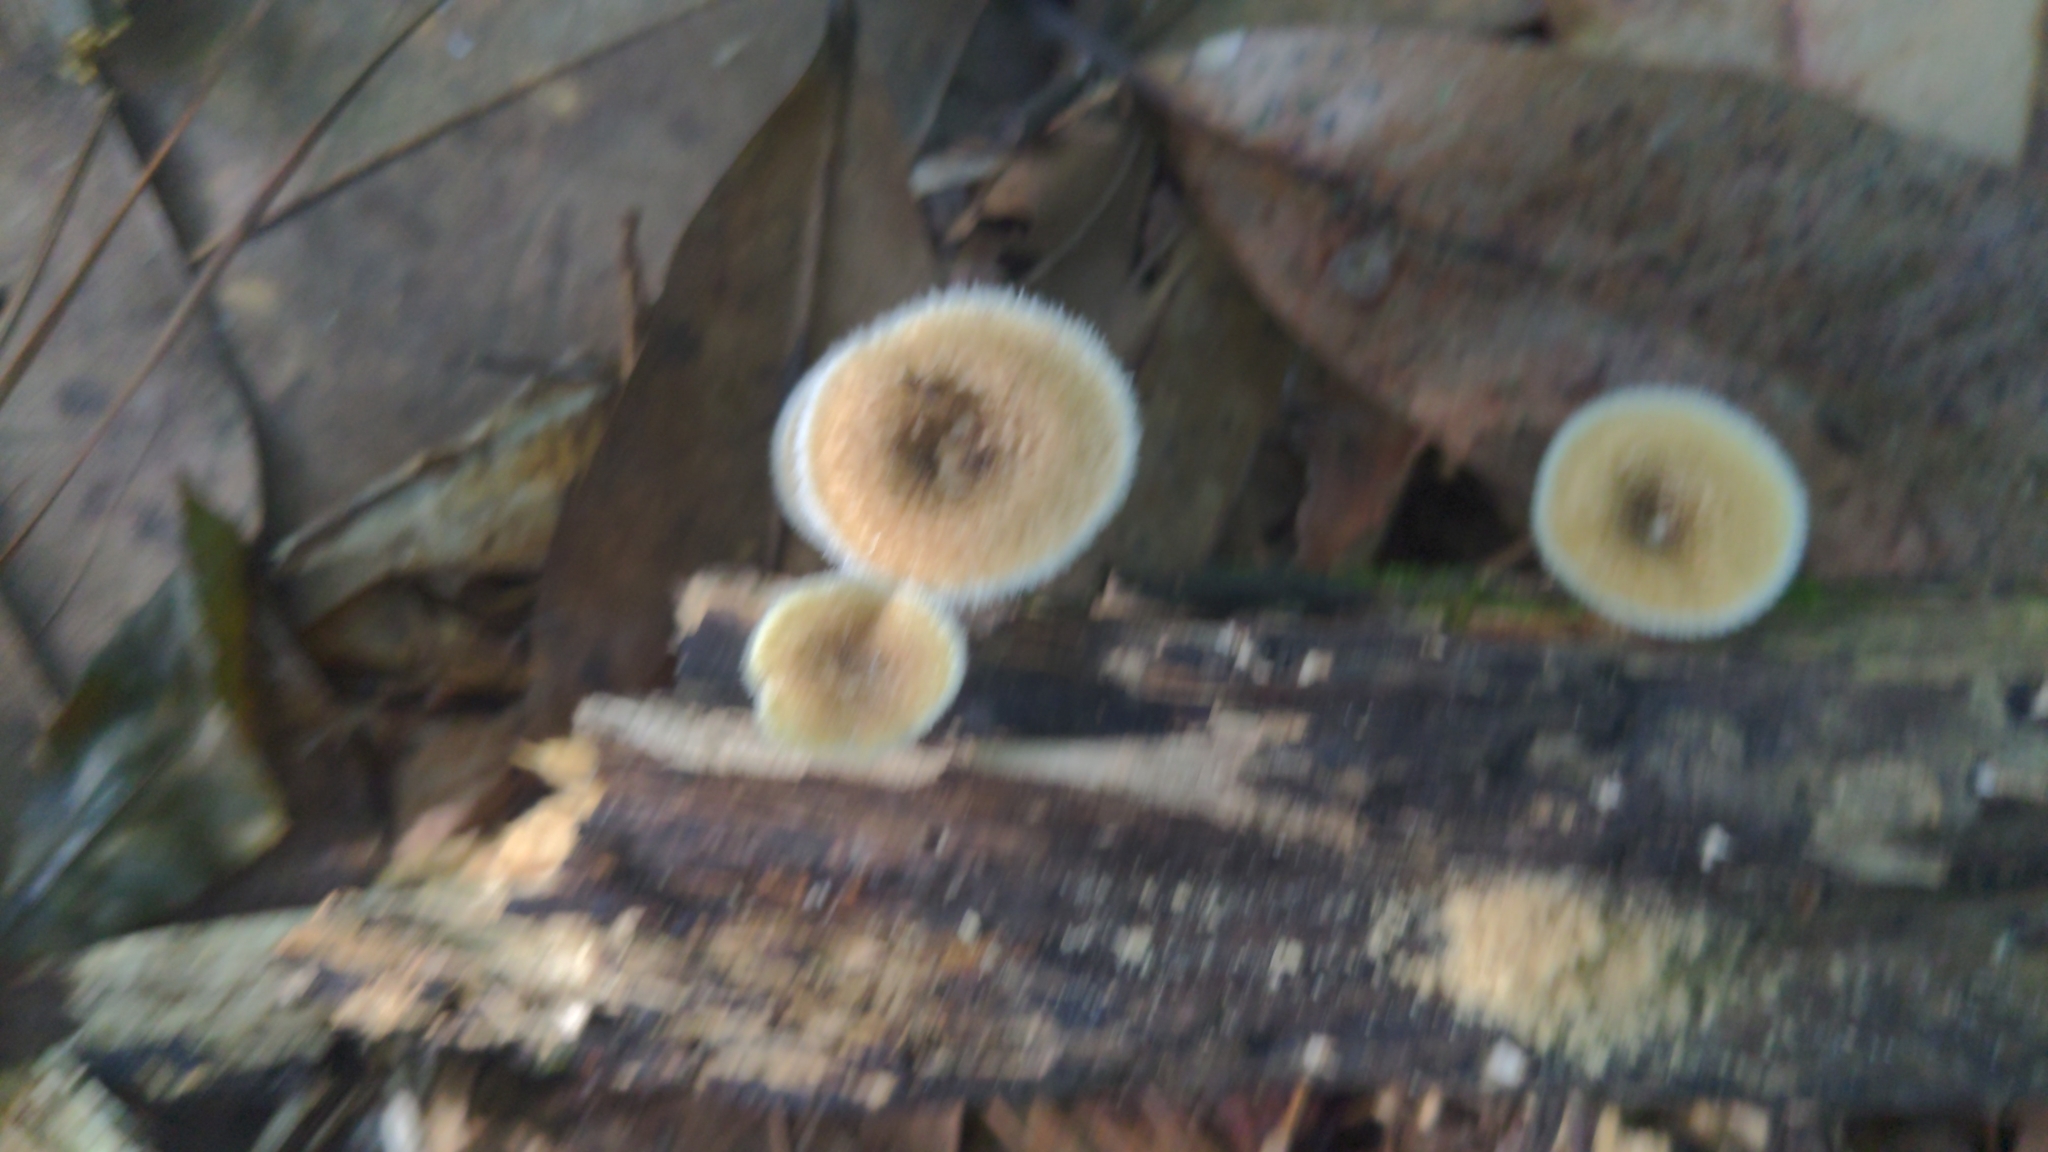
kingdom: Fungi
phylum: Basidiomycota
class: Agaricomycetes
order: Polyporales
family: Polyporaceae
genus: Lentinus
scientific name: Lentinus crinitus
